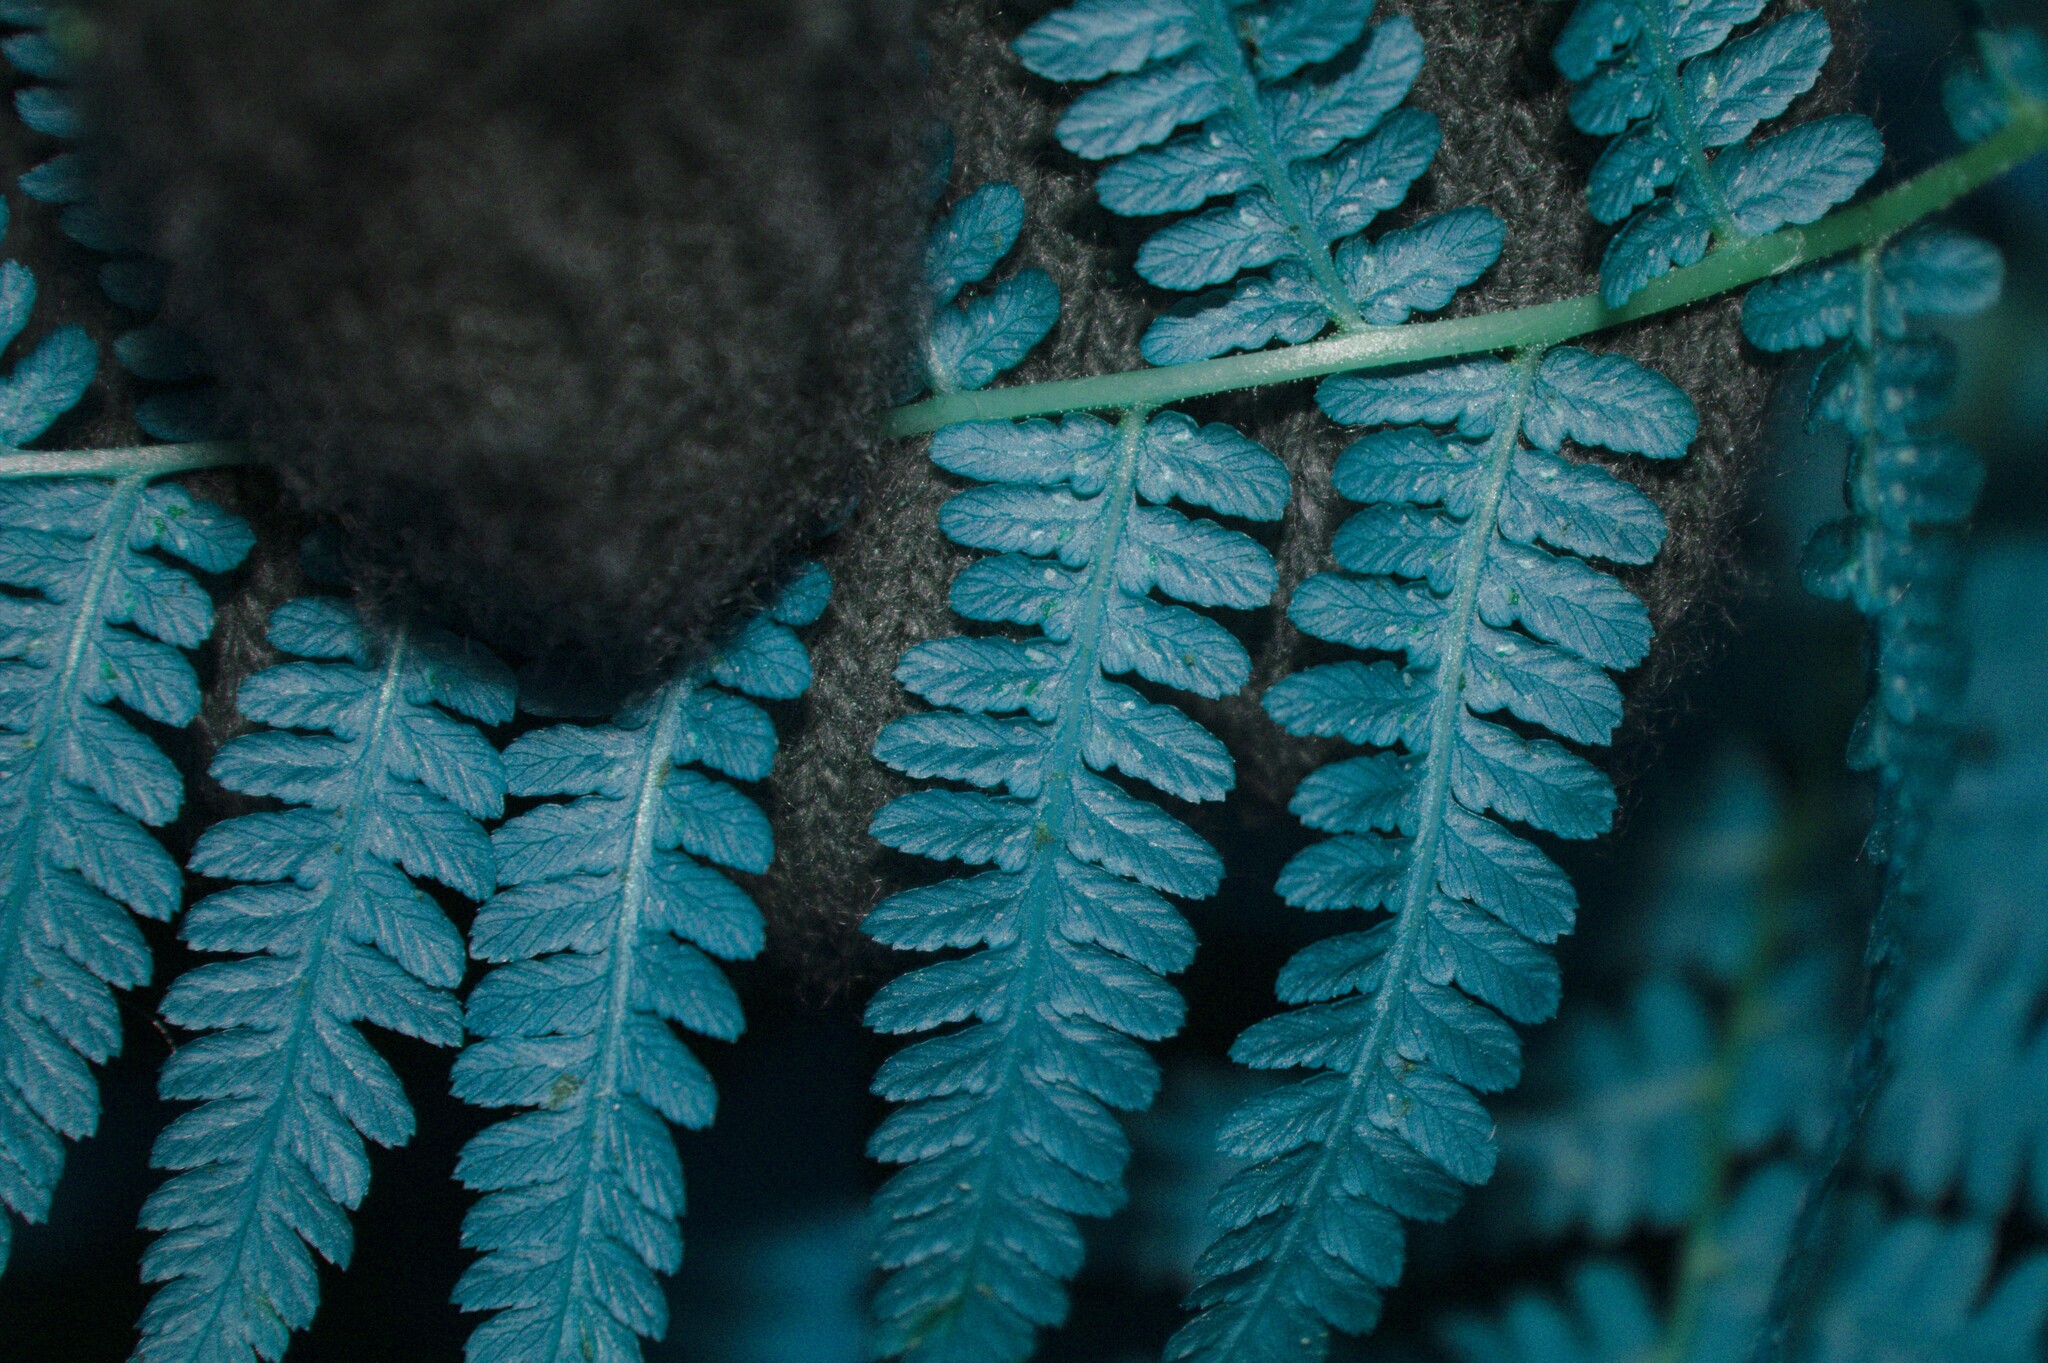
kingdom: Plantae
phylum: Tracheophyta
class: Polypodiopsida
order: Polypodiales
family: Athyriaceae
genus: Athyrium
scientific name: Athyrium angustum
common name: Northern lady fern
